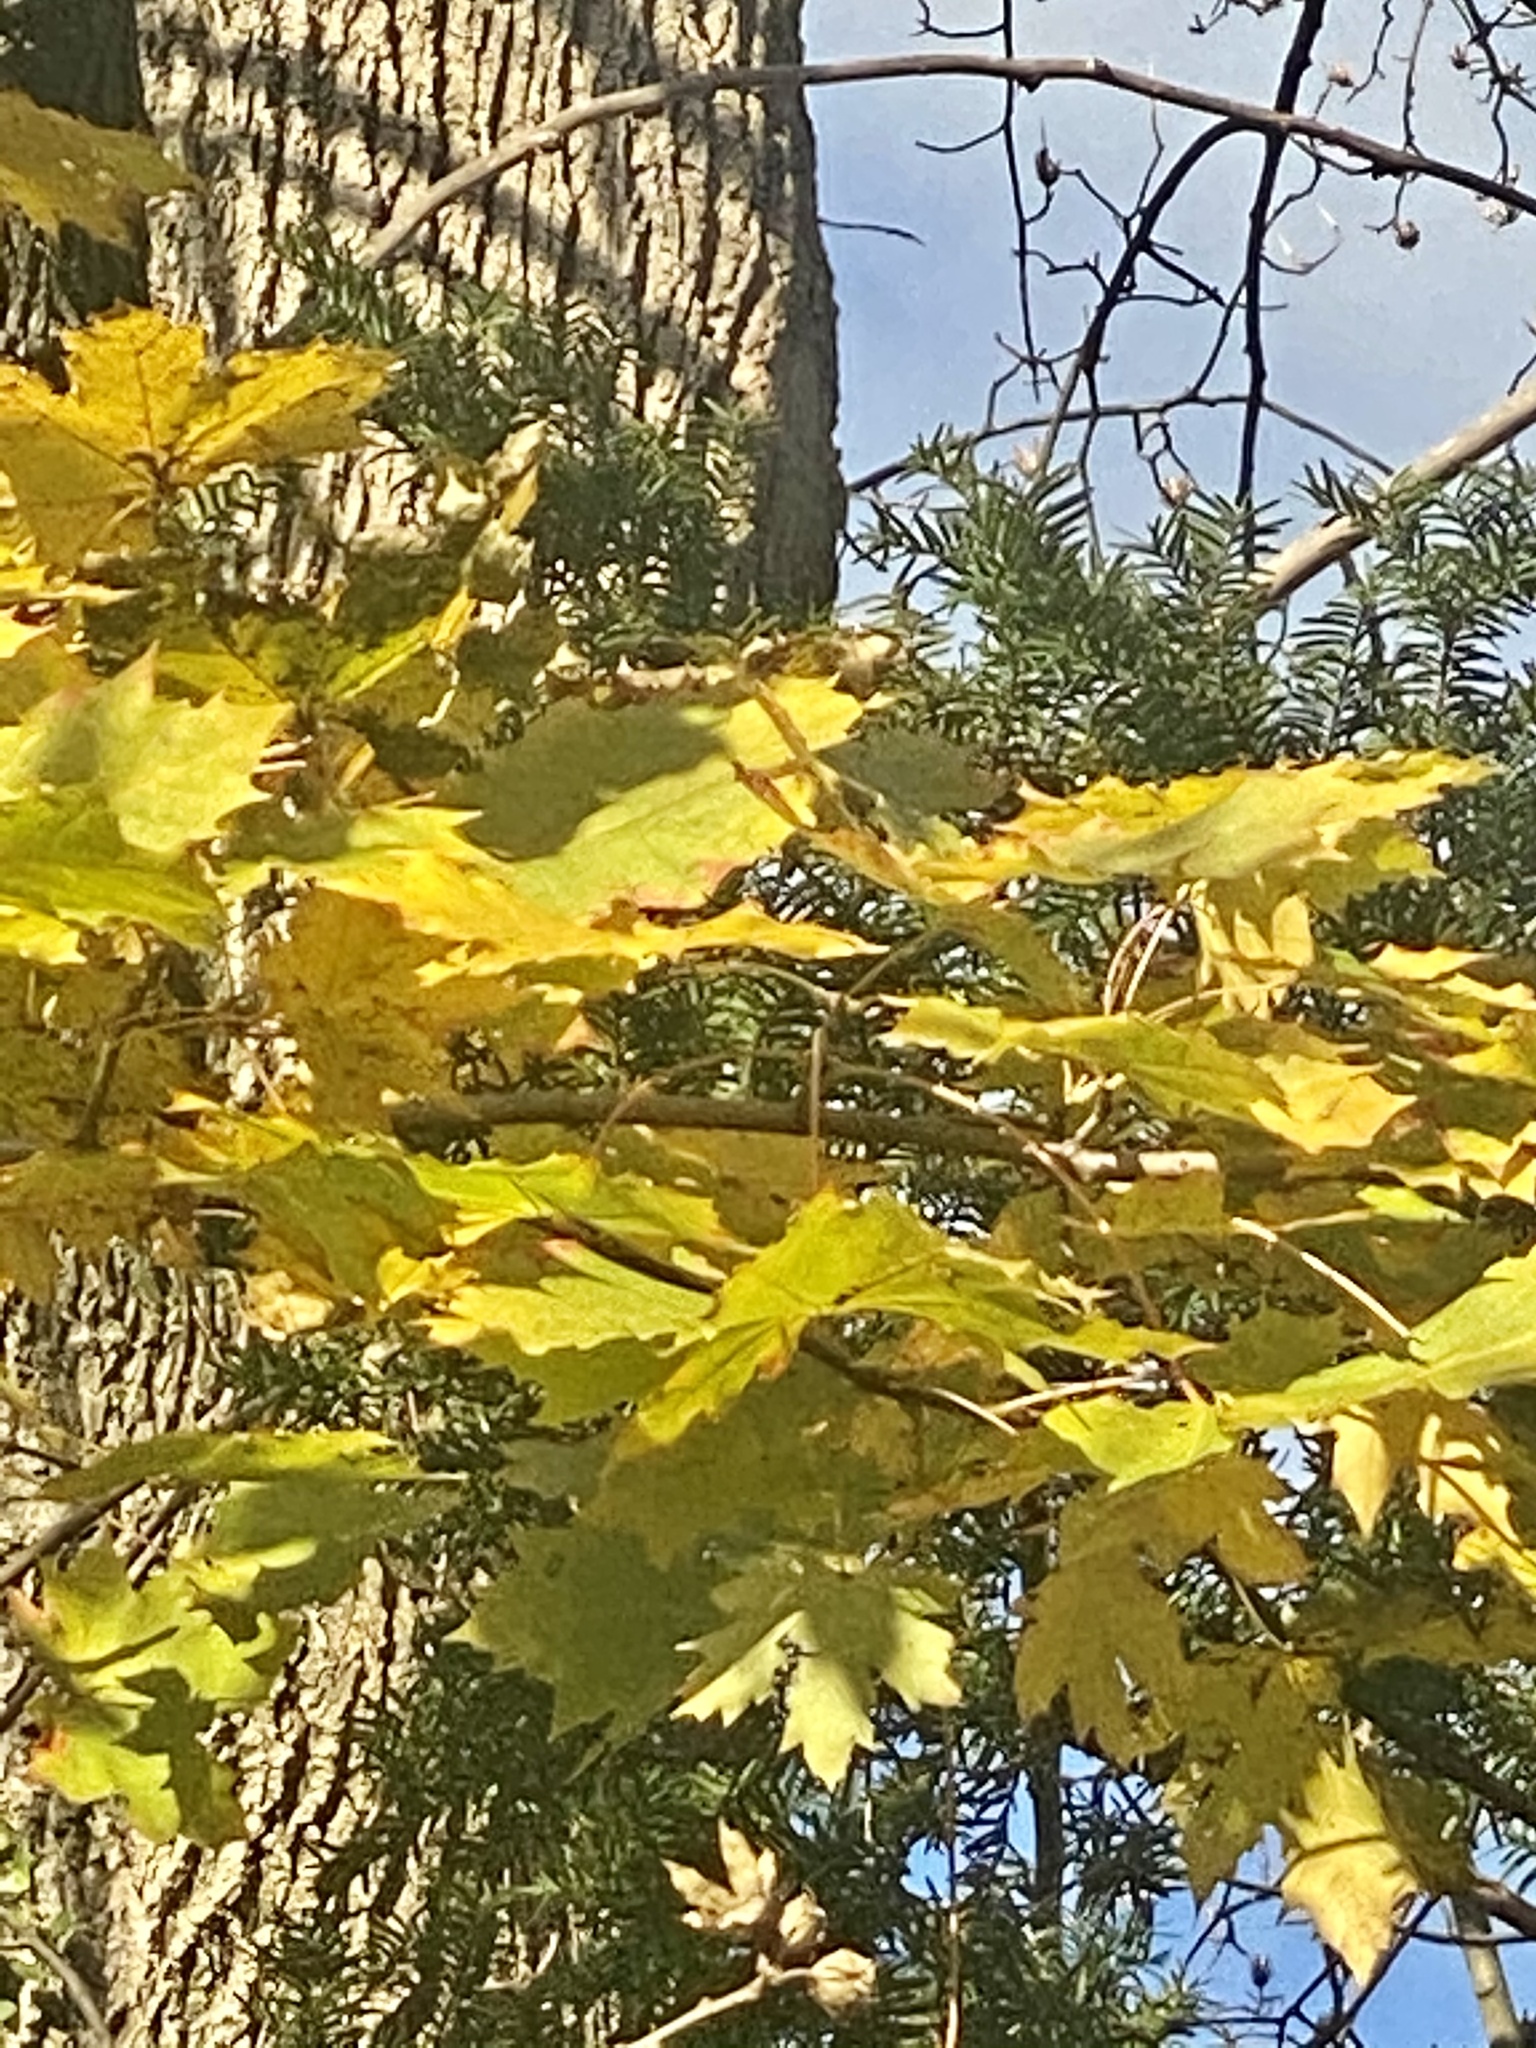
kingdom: Plantae
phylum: Tracheophyta
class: Magnoliopsida
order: Sapindales
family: Sapindaceae
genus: Acer
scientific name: Acer platanoides
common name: Norway maple
